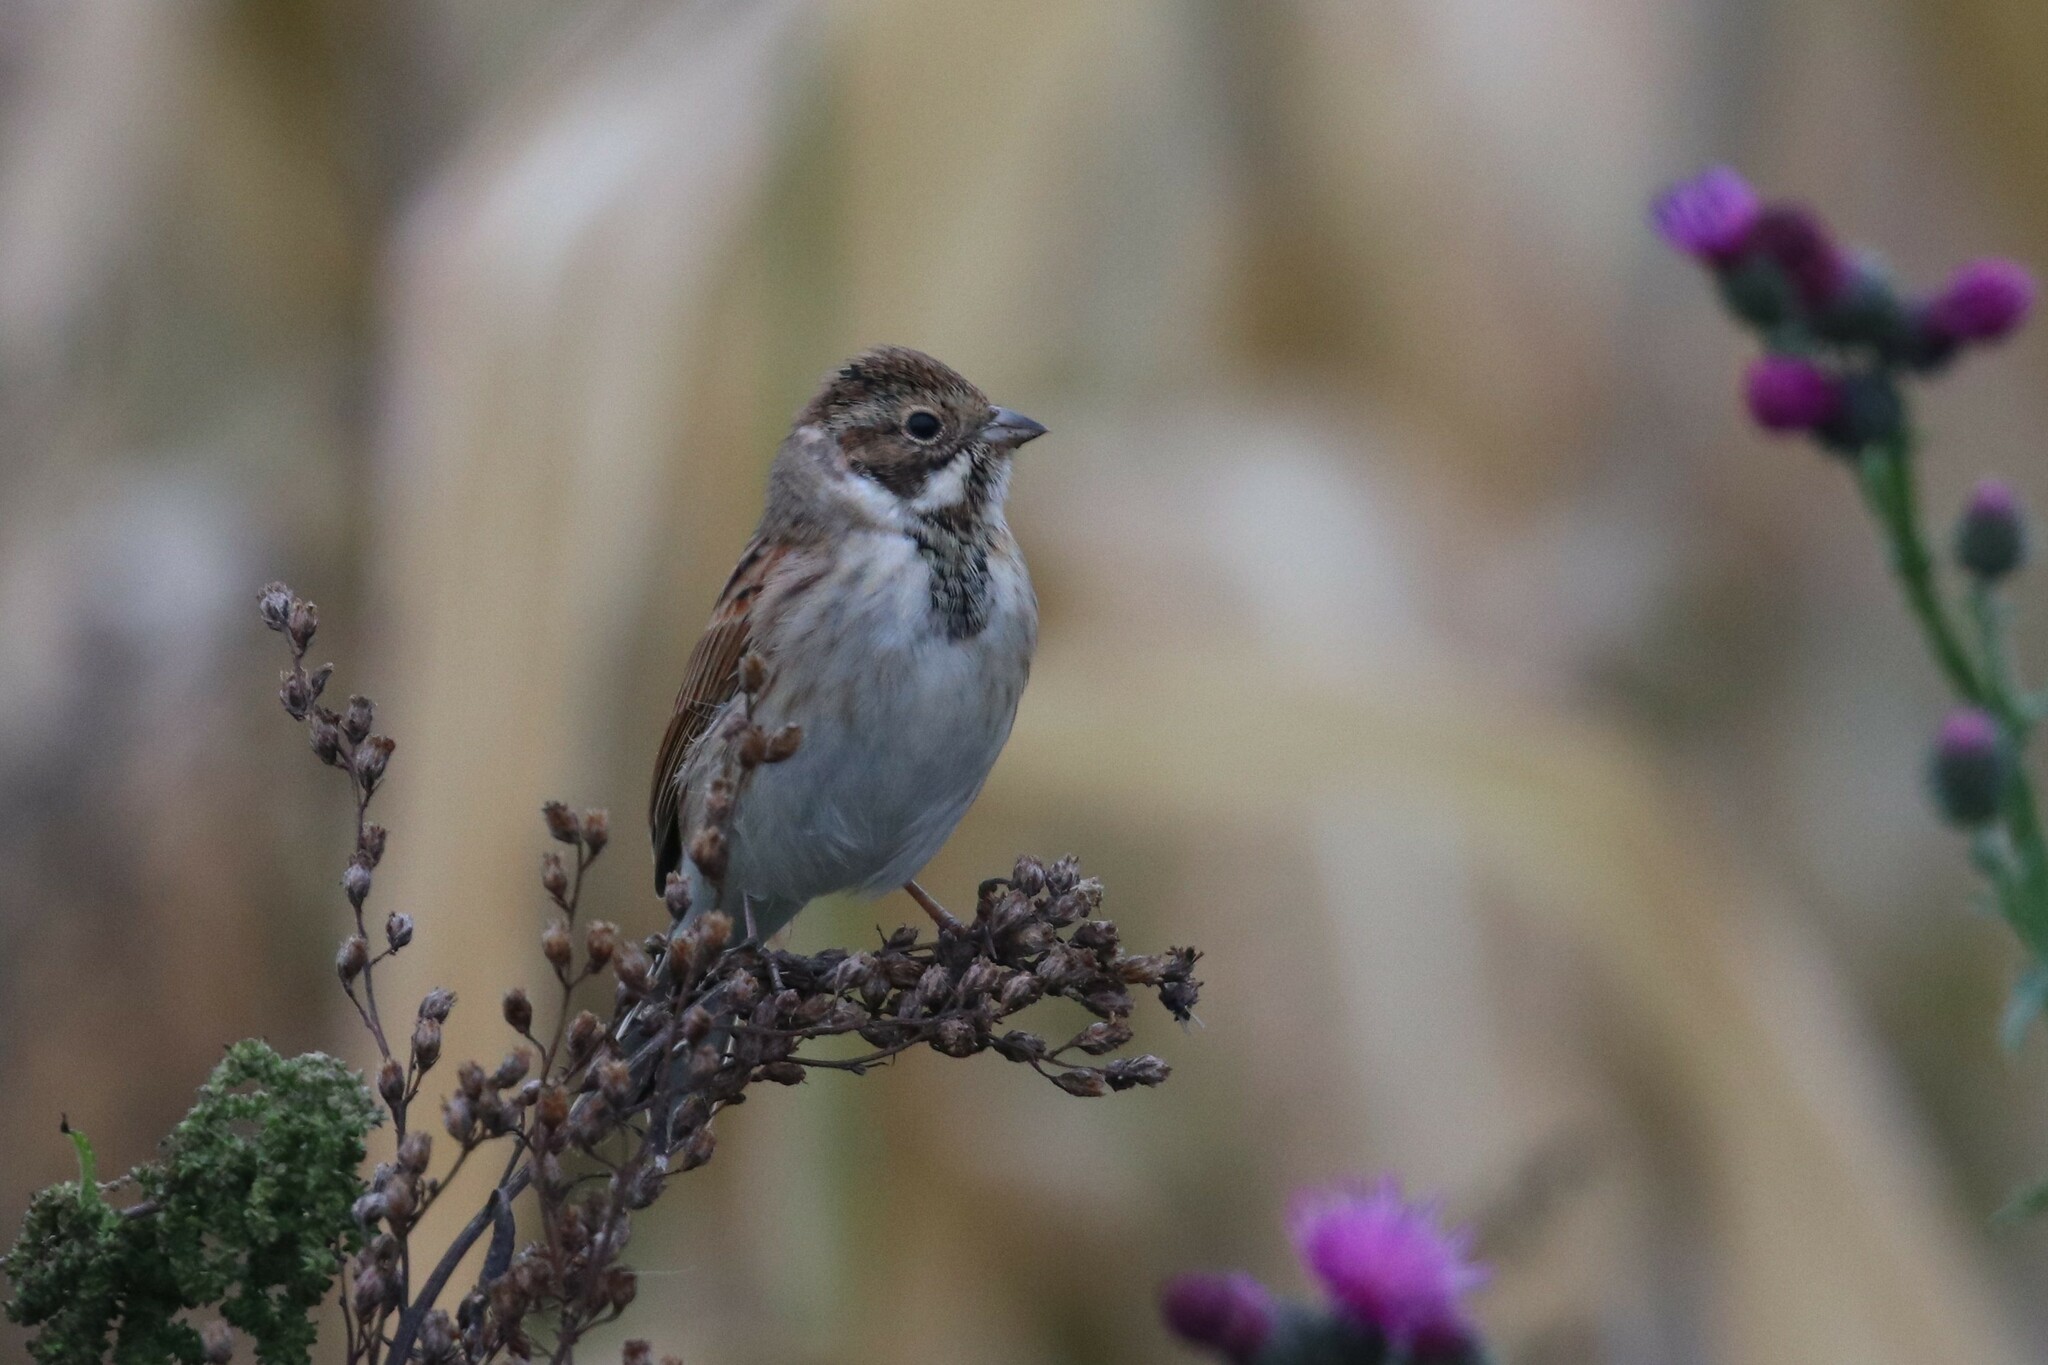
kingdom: Animalia
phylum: Chordata
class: Aves
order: Passeriformes
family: Emberizidae
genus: Emberiza
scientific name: Emberiza schoeniclus
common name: Reed bunting
